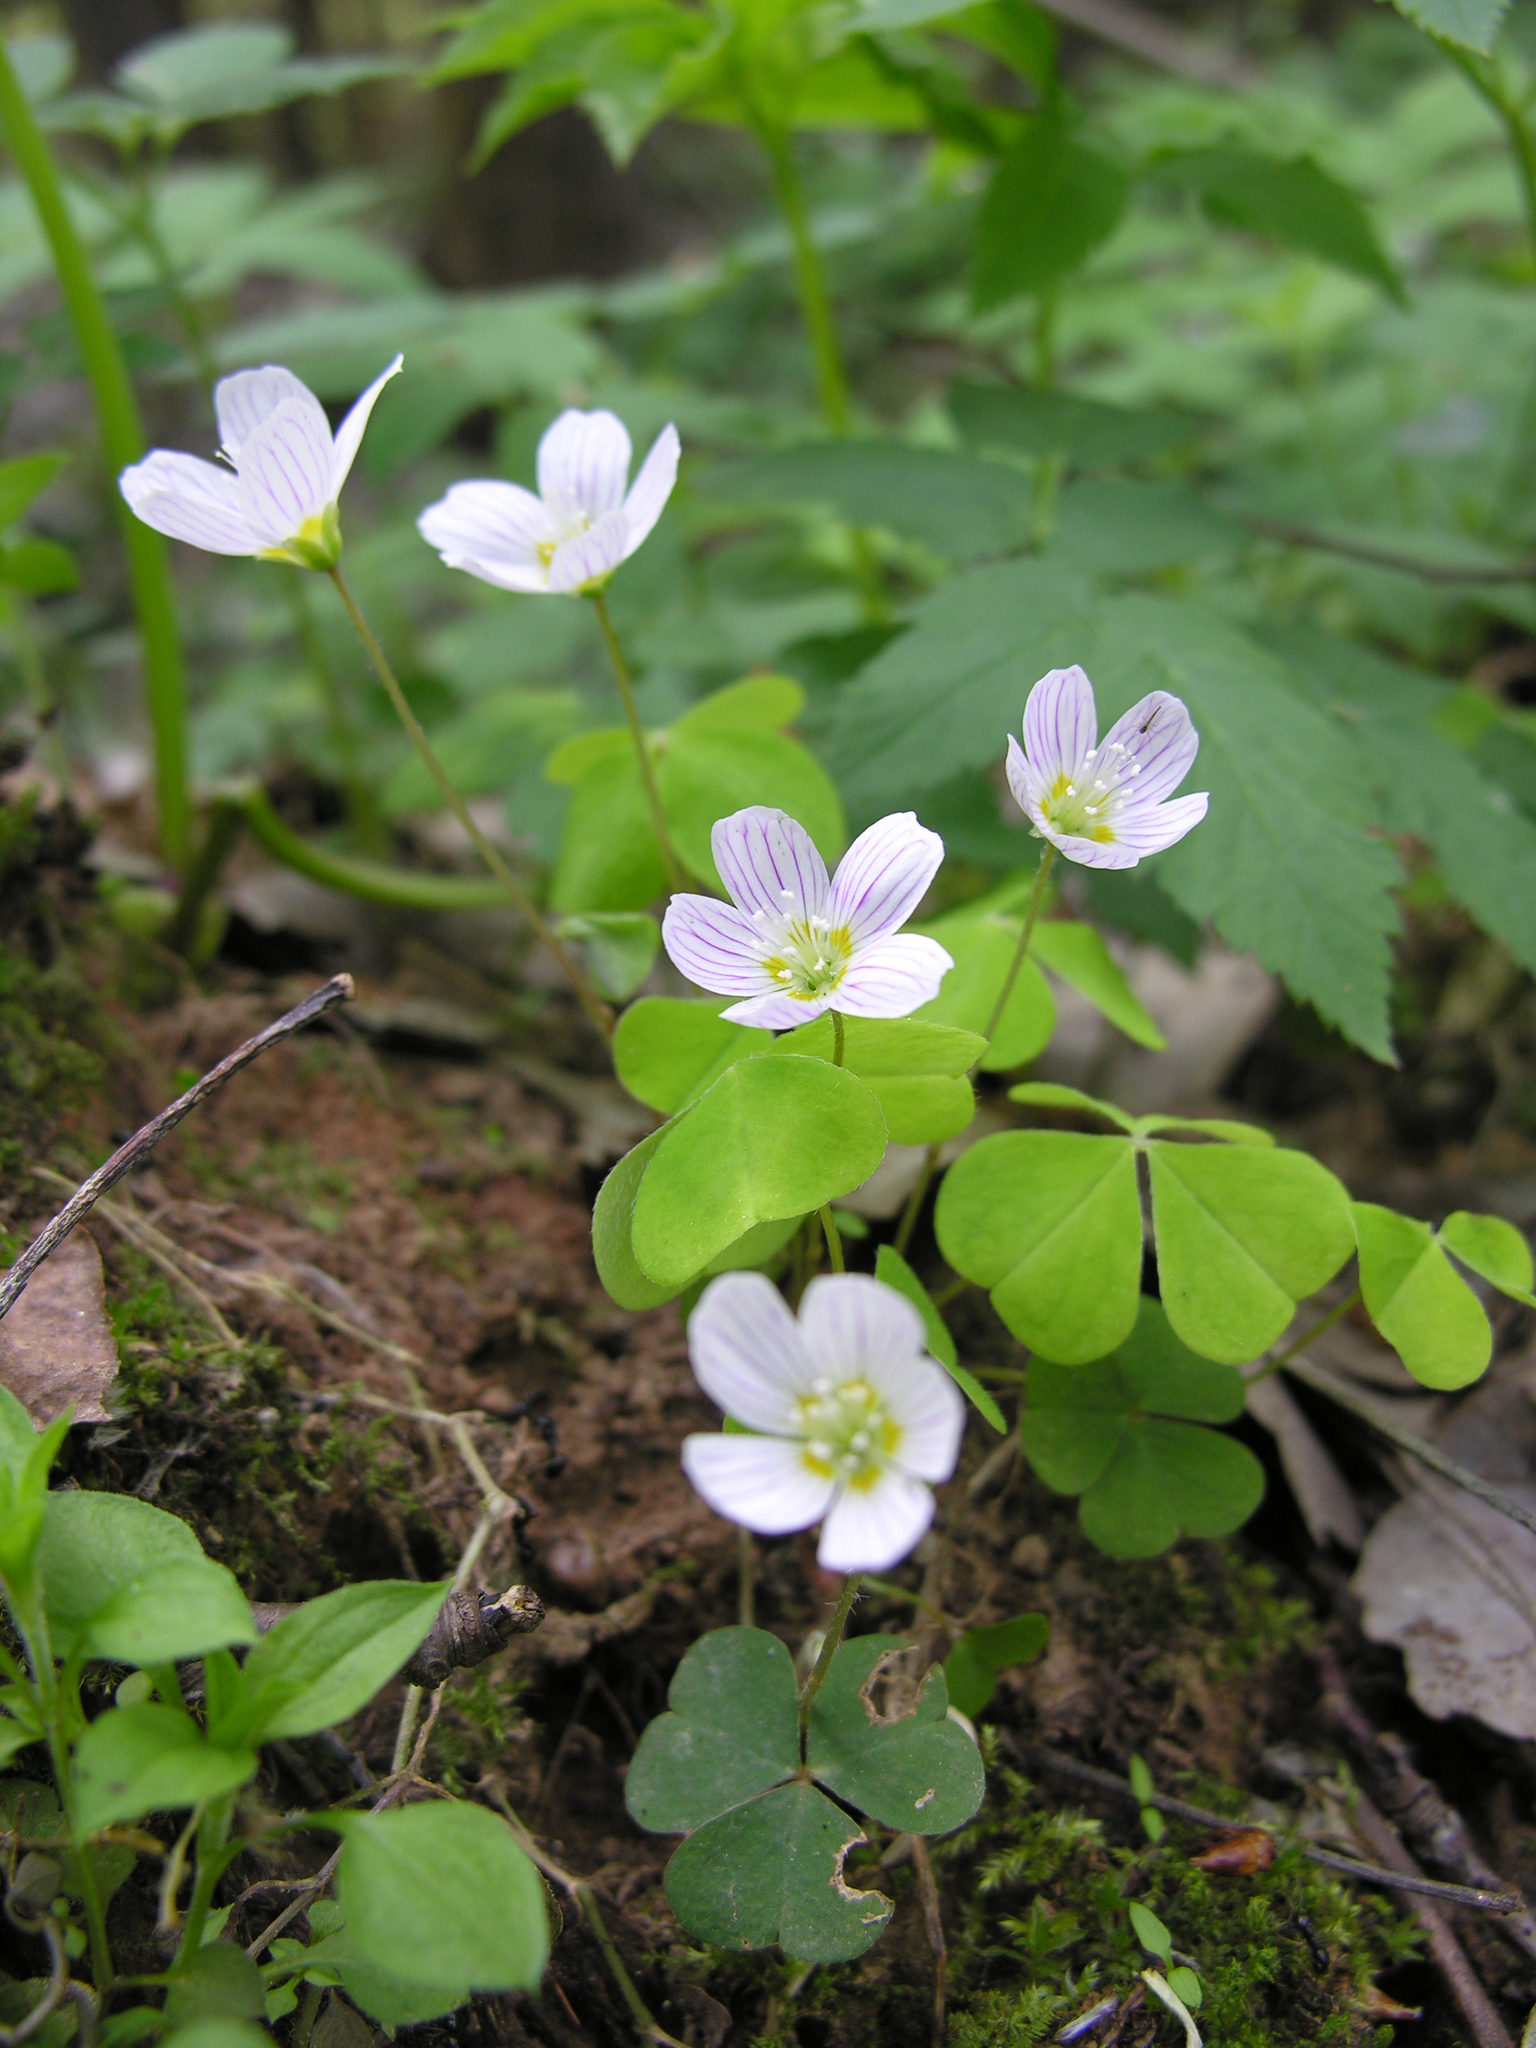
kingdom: Plantae
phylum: Tracheophyta
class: Magnoliopsida
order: Oxalidales
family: Oxalidaceae
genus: Oxalis
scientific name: Oxalis acetosella
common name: Wood-sorrel
